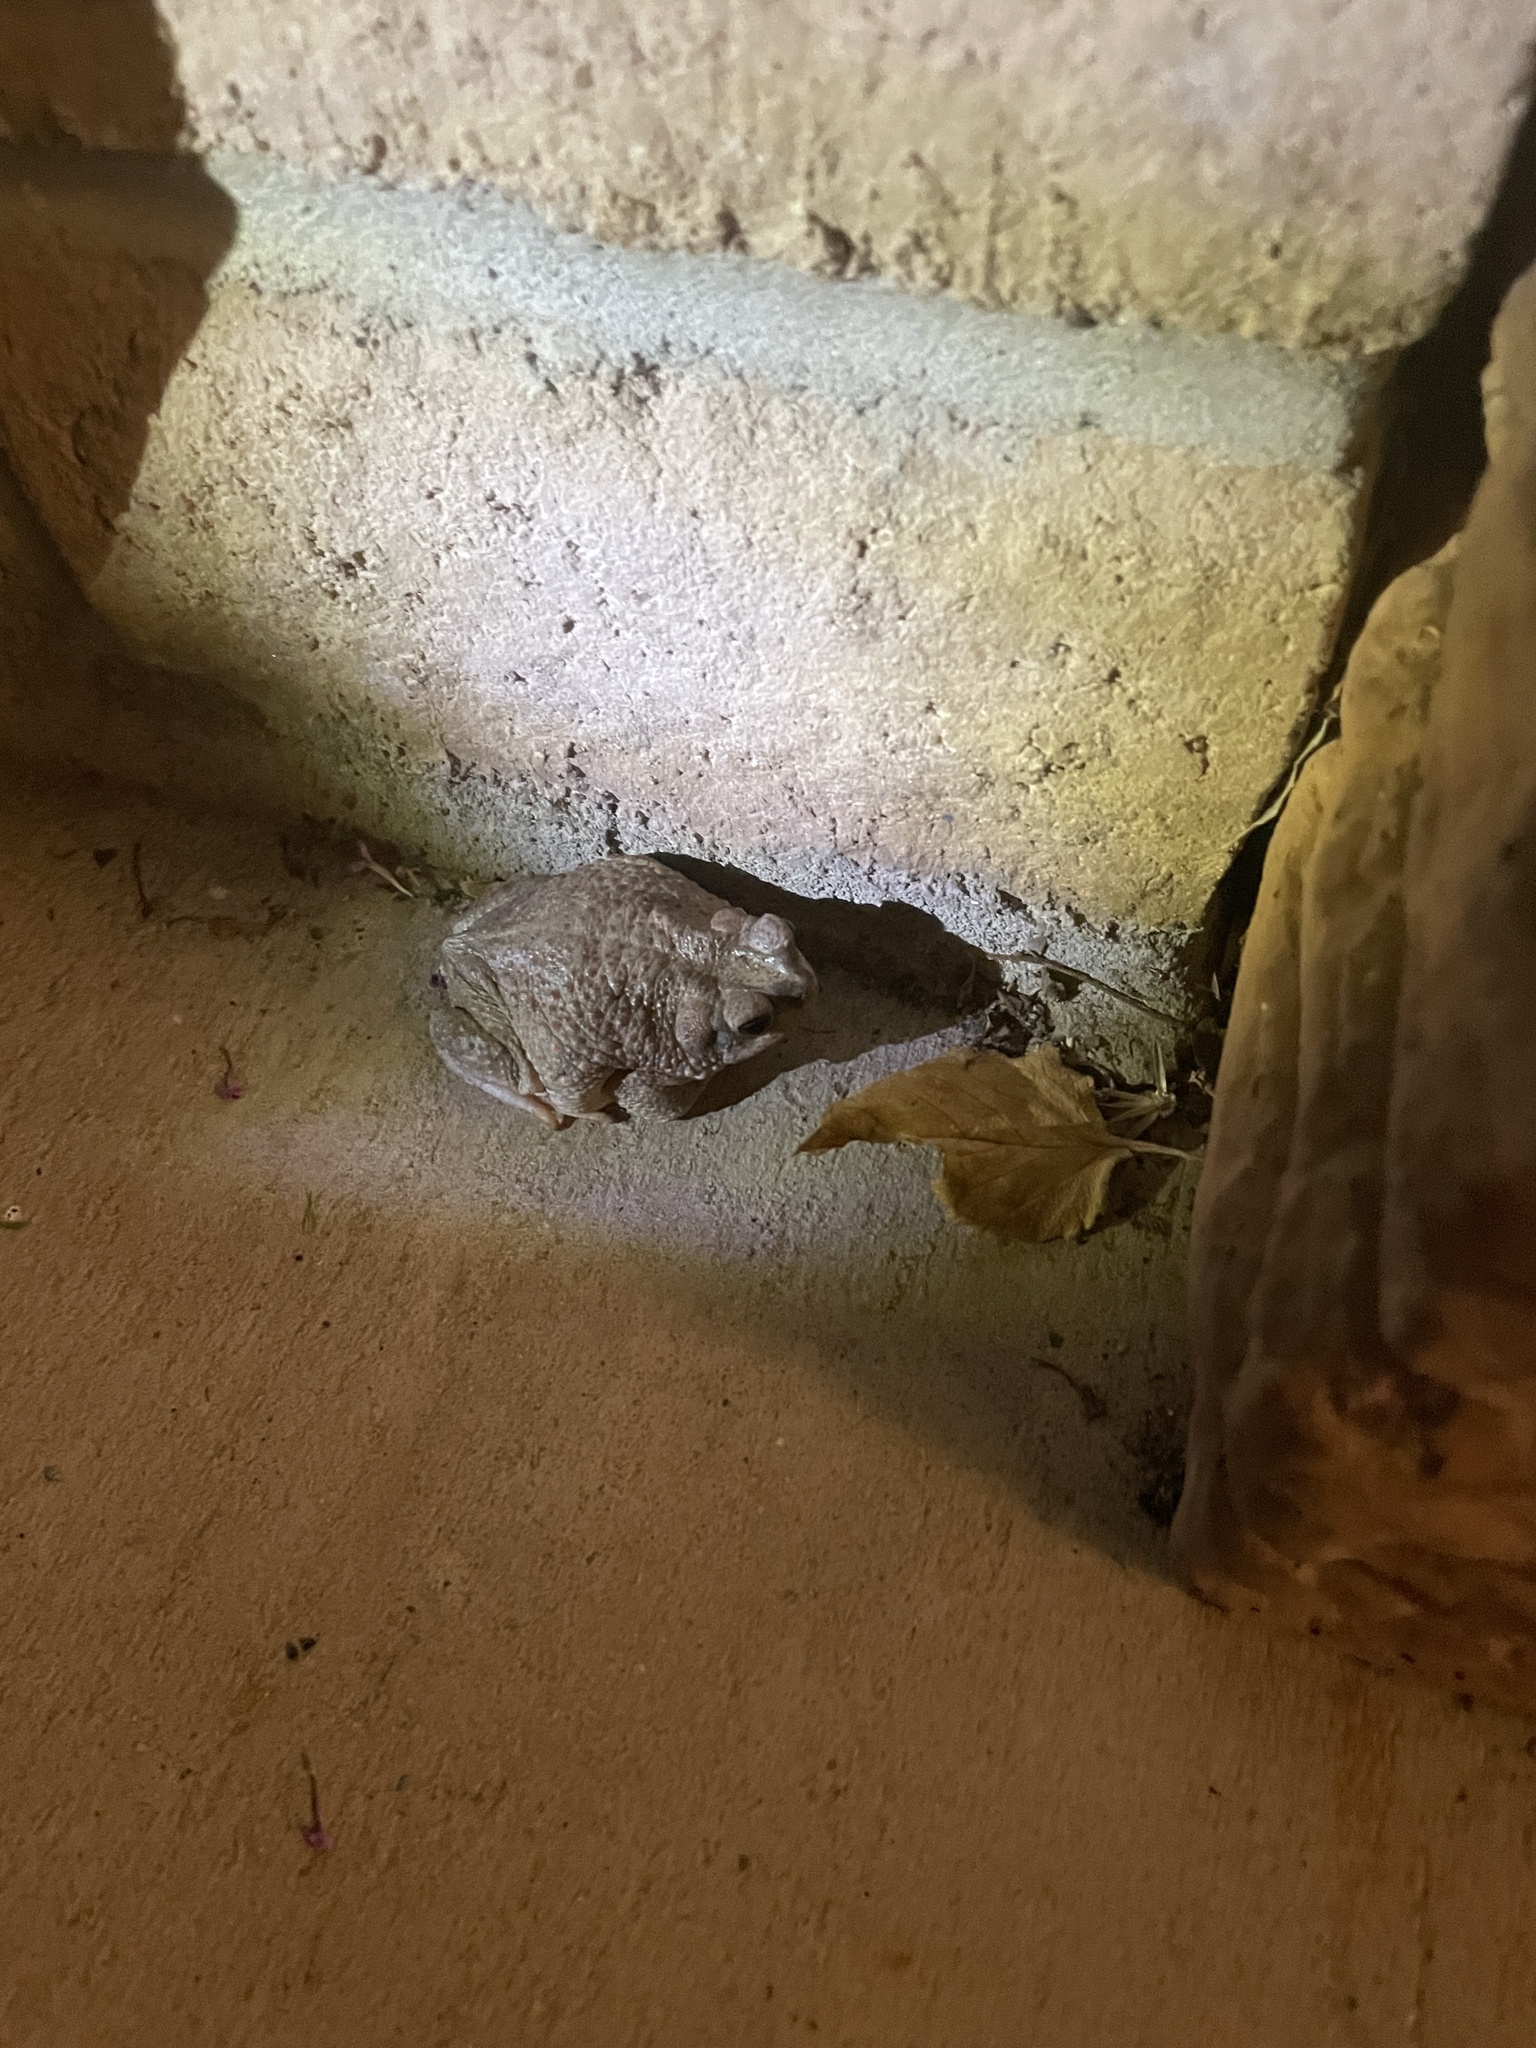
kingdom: Animalia
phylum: Chordata
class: Amphibia
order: Anura
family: Bufonidae
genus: Anaxyrus
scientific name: Anaxyrus punctatus
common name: Red-spotted toad
